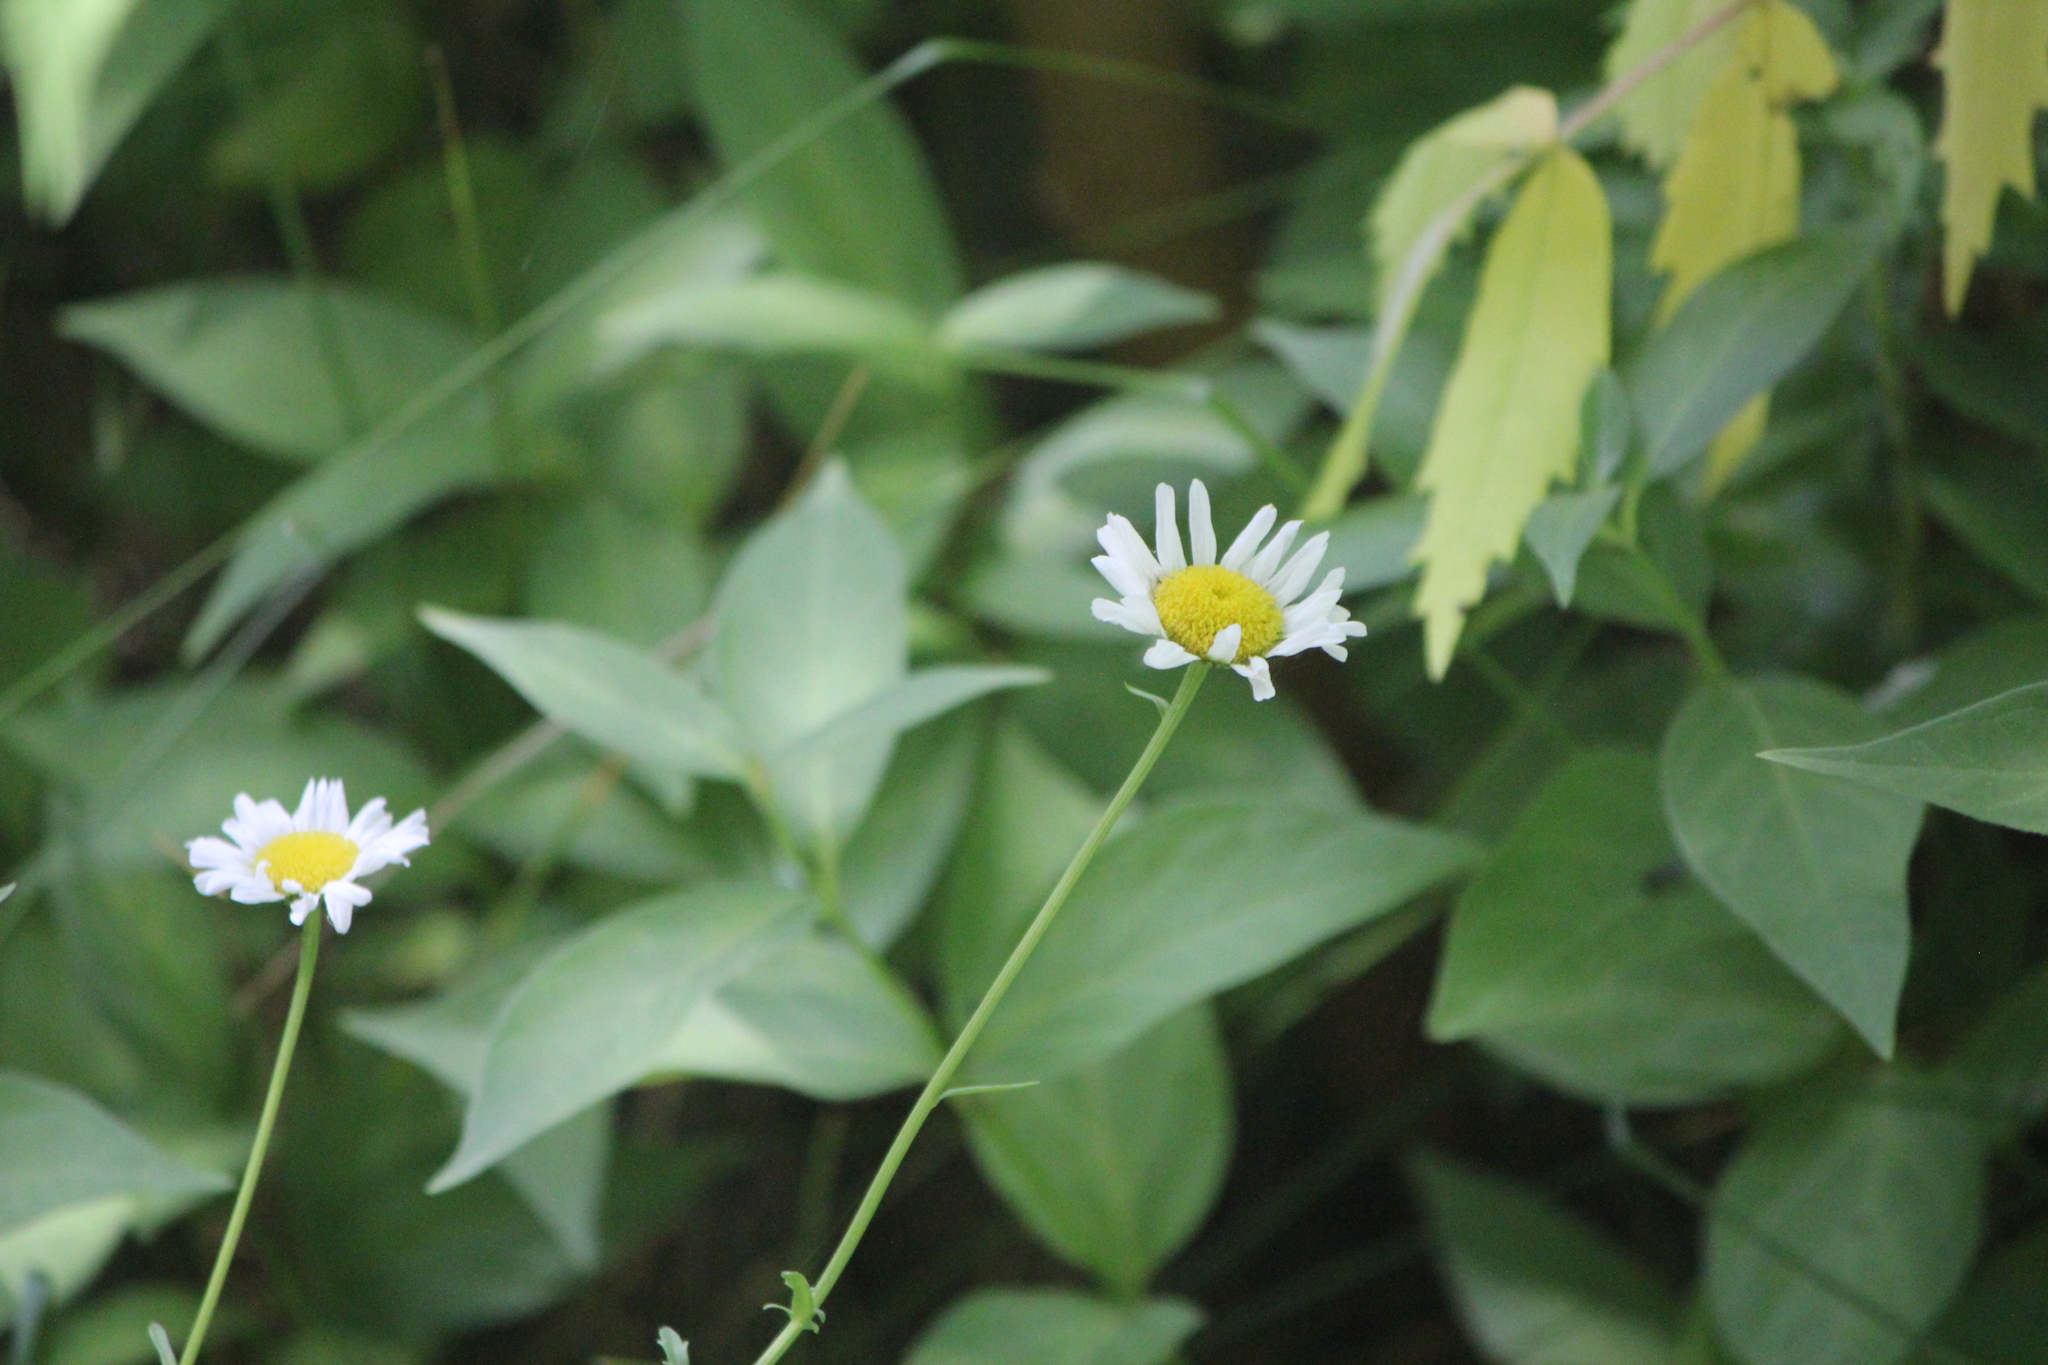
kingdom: Plantae
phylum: Tracheophyta
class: Magnoliopsida
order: Asterales
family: Asteraceae
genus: Leucanthemum
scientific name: Leucanthemum vulgare
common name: Oxeye daisy
